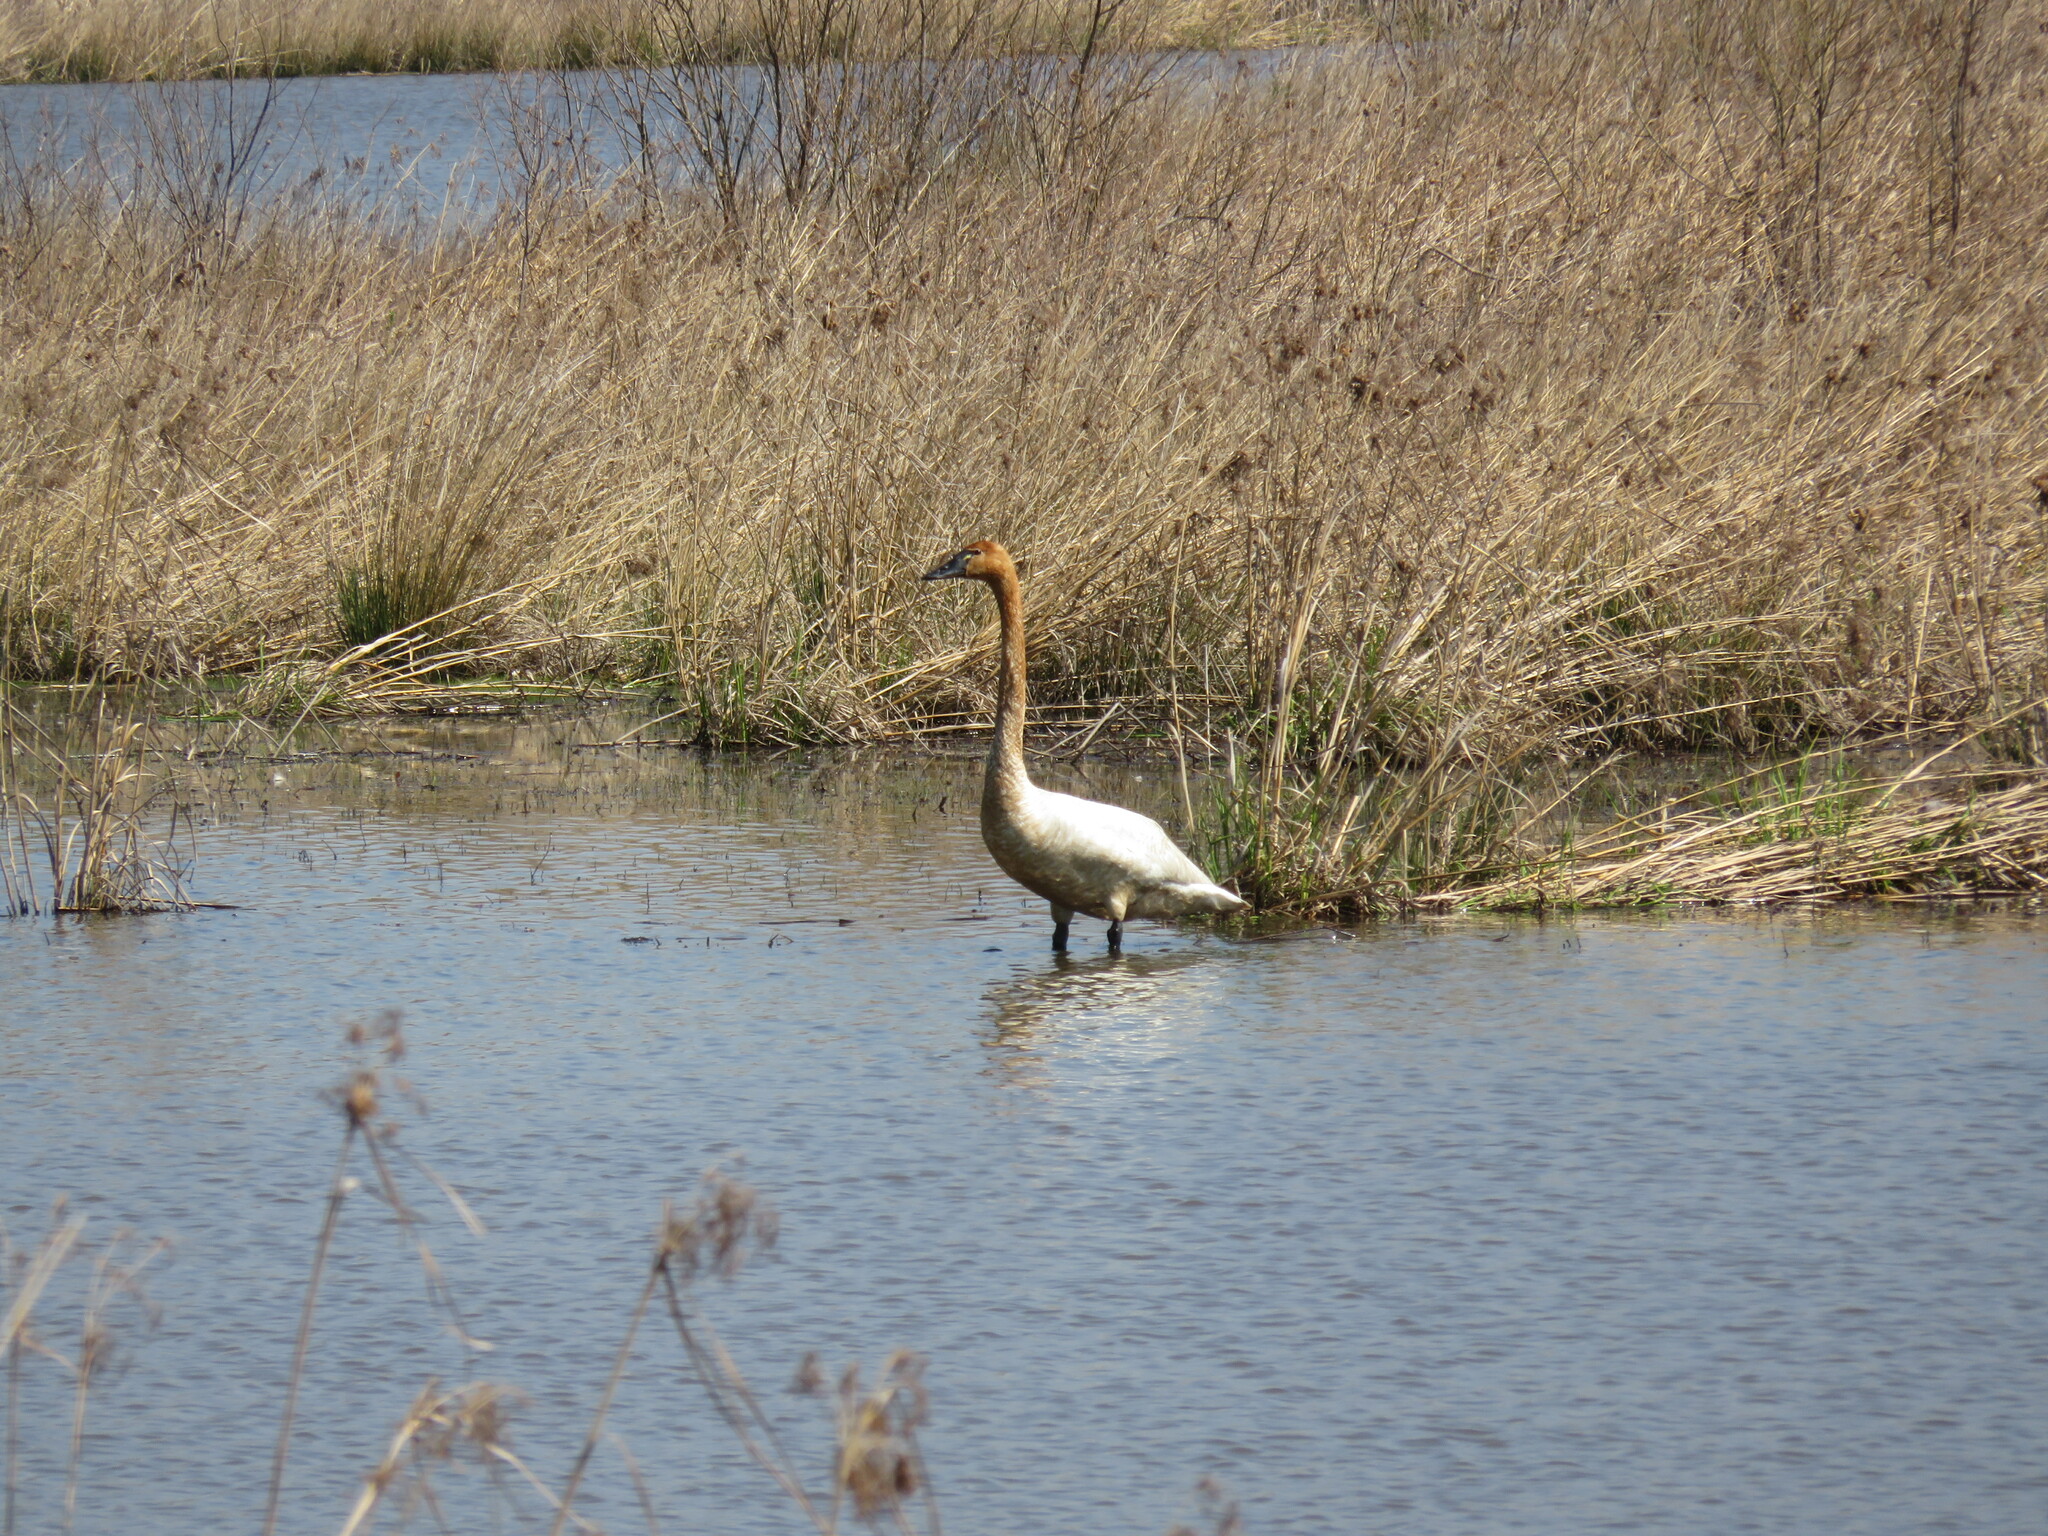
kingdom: Animalia
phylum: Chordata
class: Aves
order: Anseriformes
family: Anatidae
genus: Cygnus
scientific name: Cygnus buccinator
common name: Trumpeter swan
